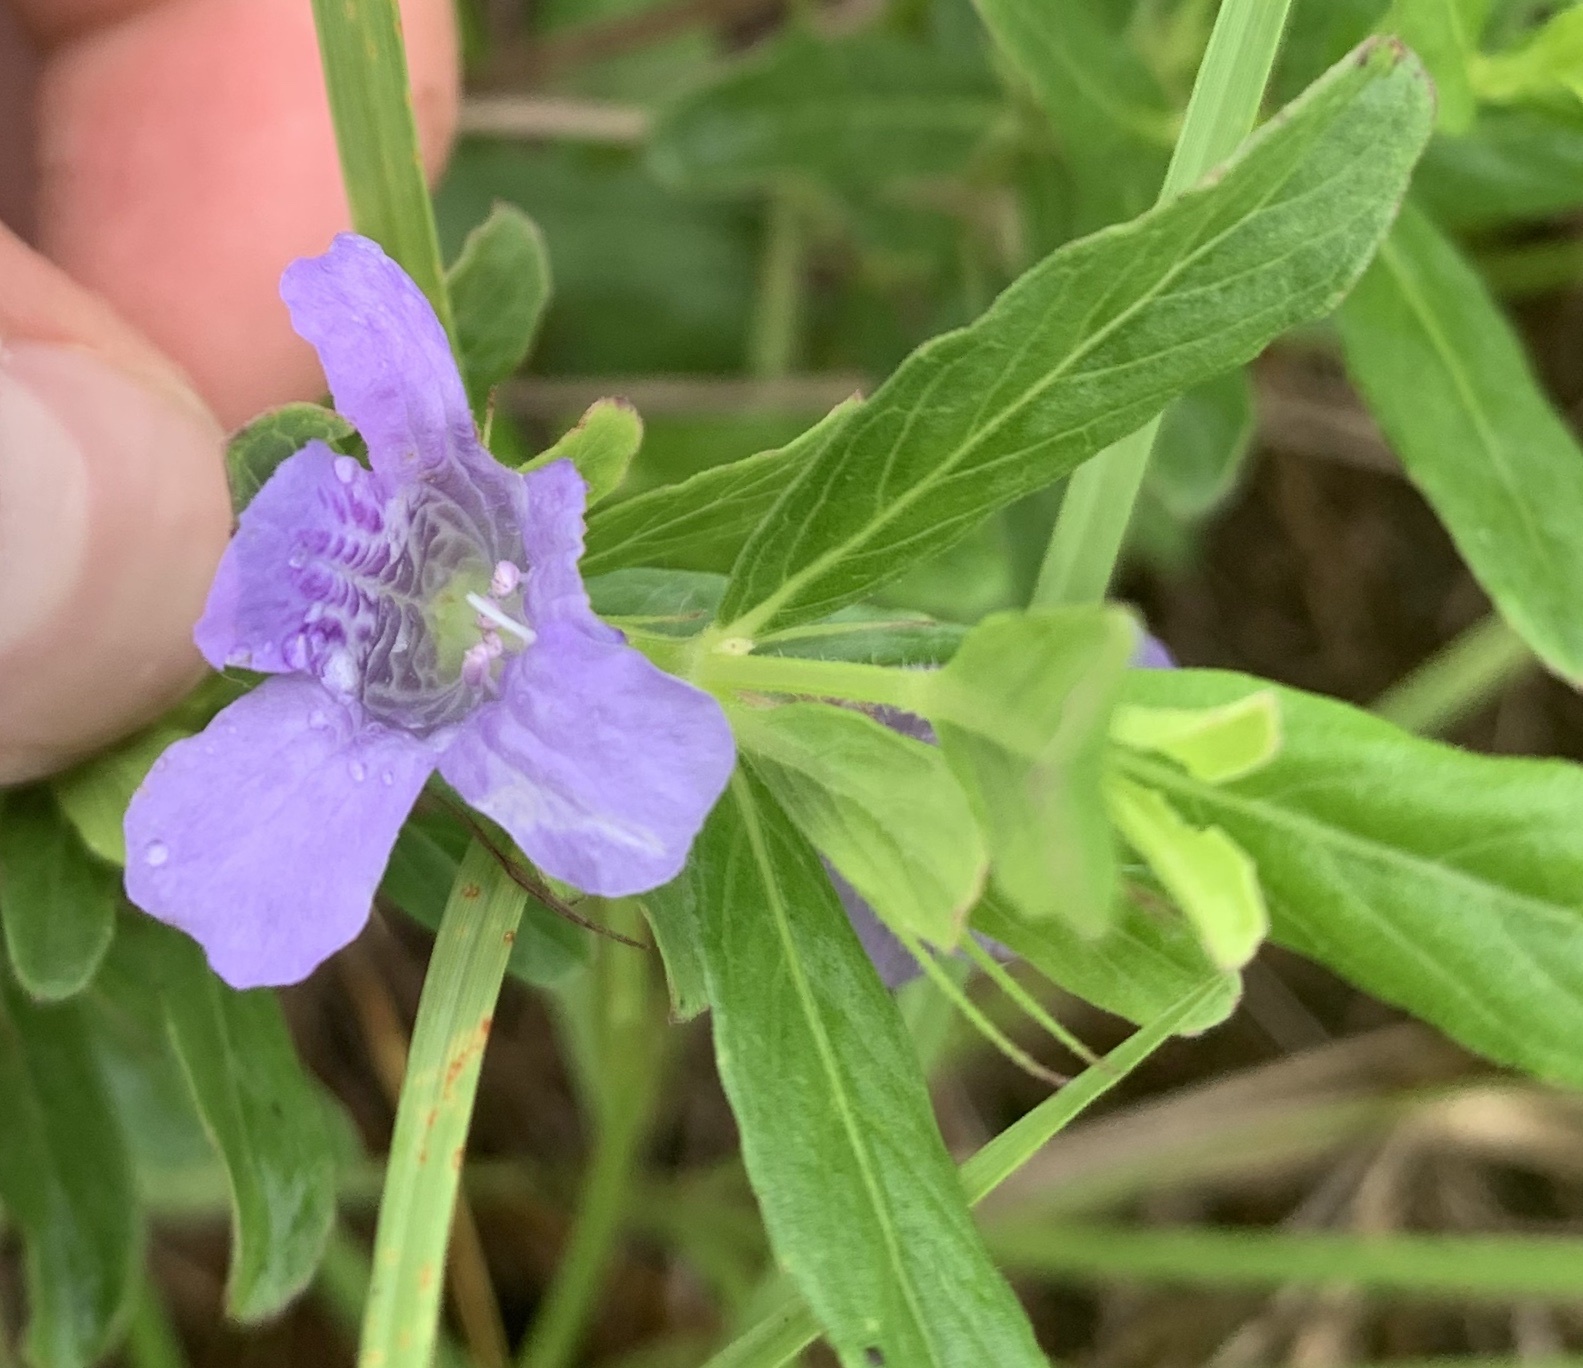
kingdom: Plantae
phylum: Tracheophyta
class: Magnoliopsida
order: Lamiales
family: Acanthaceae
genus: Dyschoriste
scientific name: Dyschoriste oblongifolia
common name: Blue twinflower
